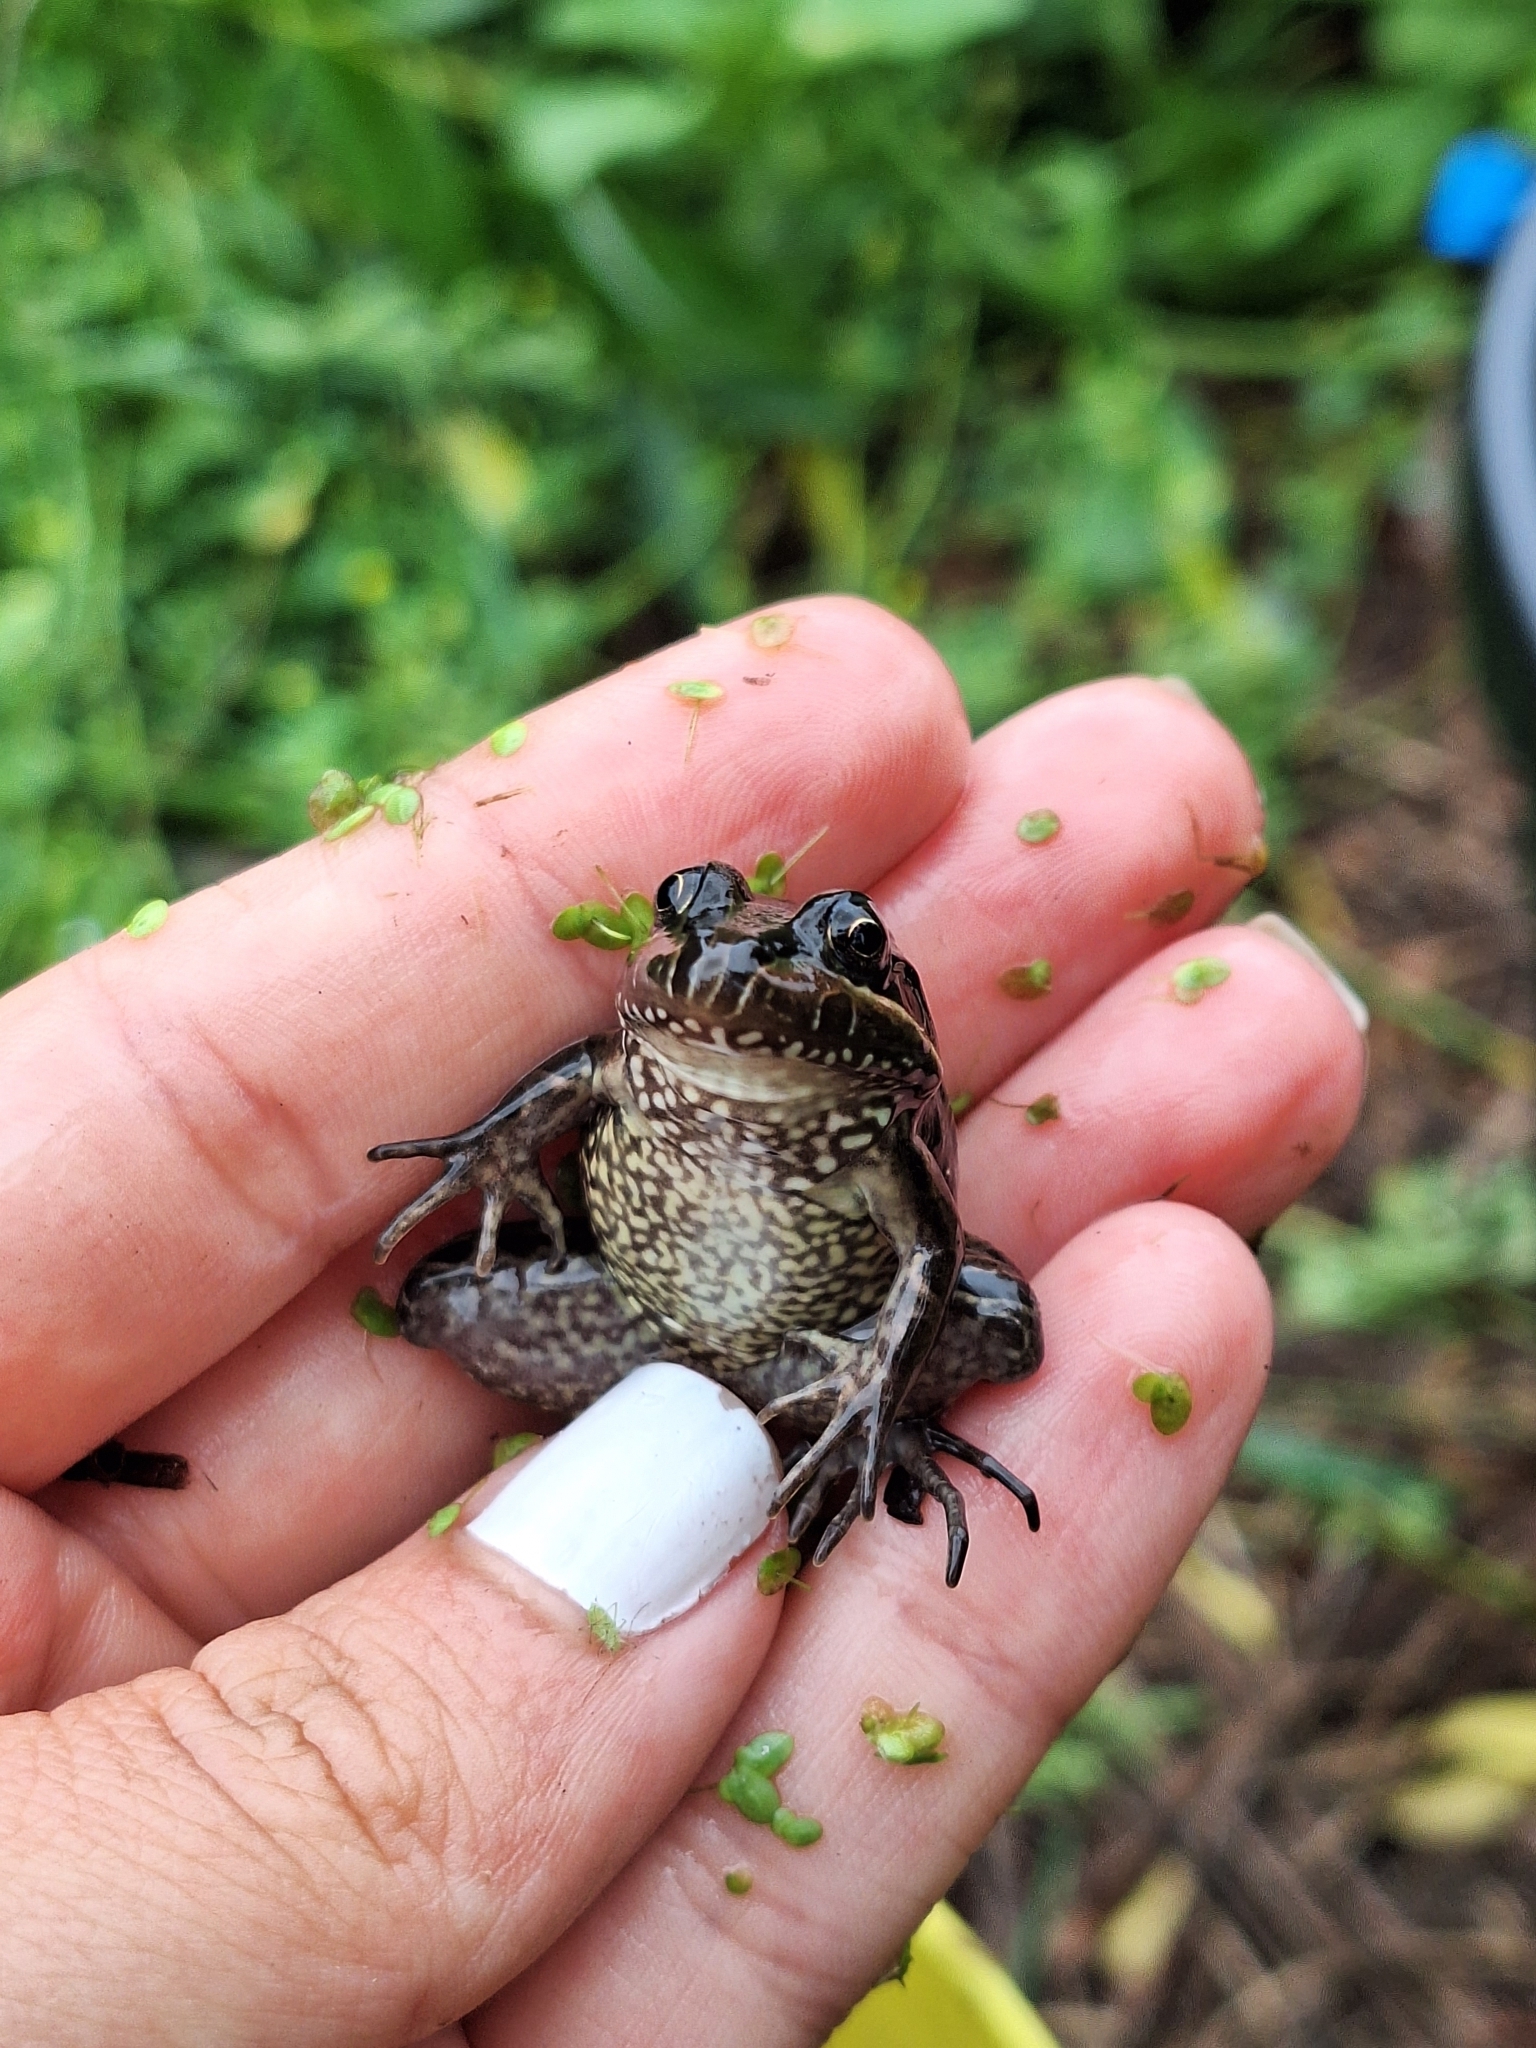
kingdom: Animalia
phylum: Chordata
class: Amphibia
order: Anura
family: Leptodactylidae
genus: Leptodactylus
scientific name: Leptodactylus luctator
